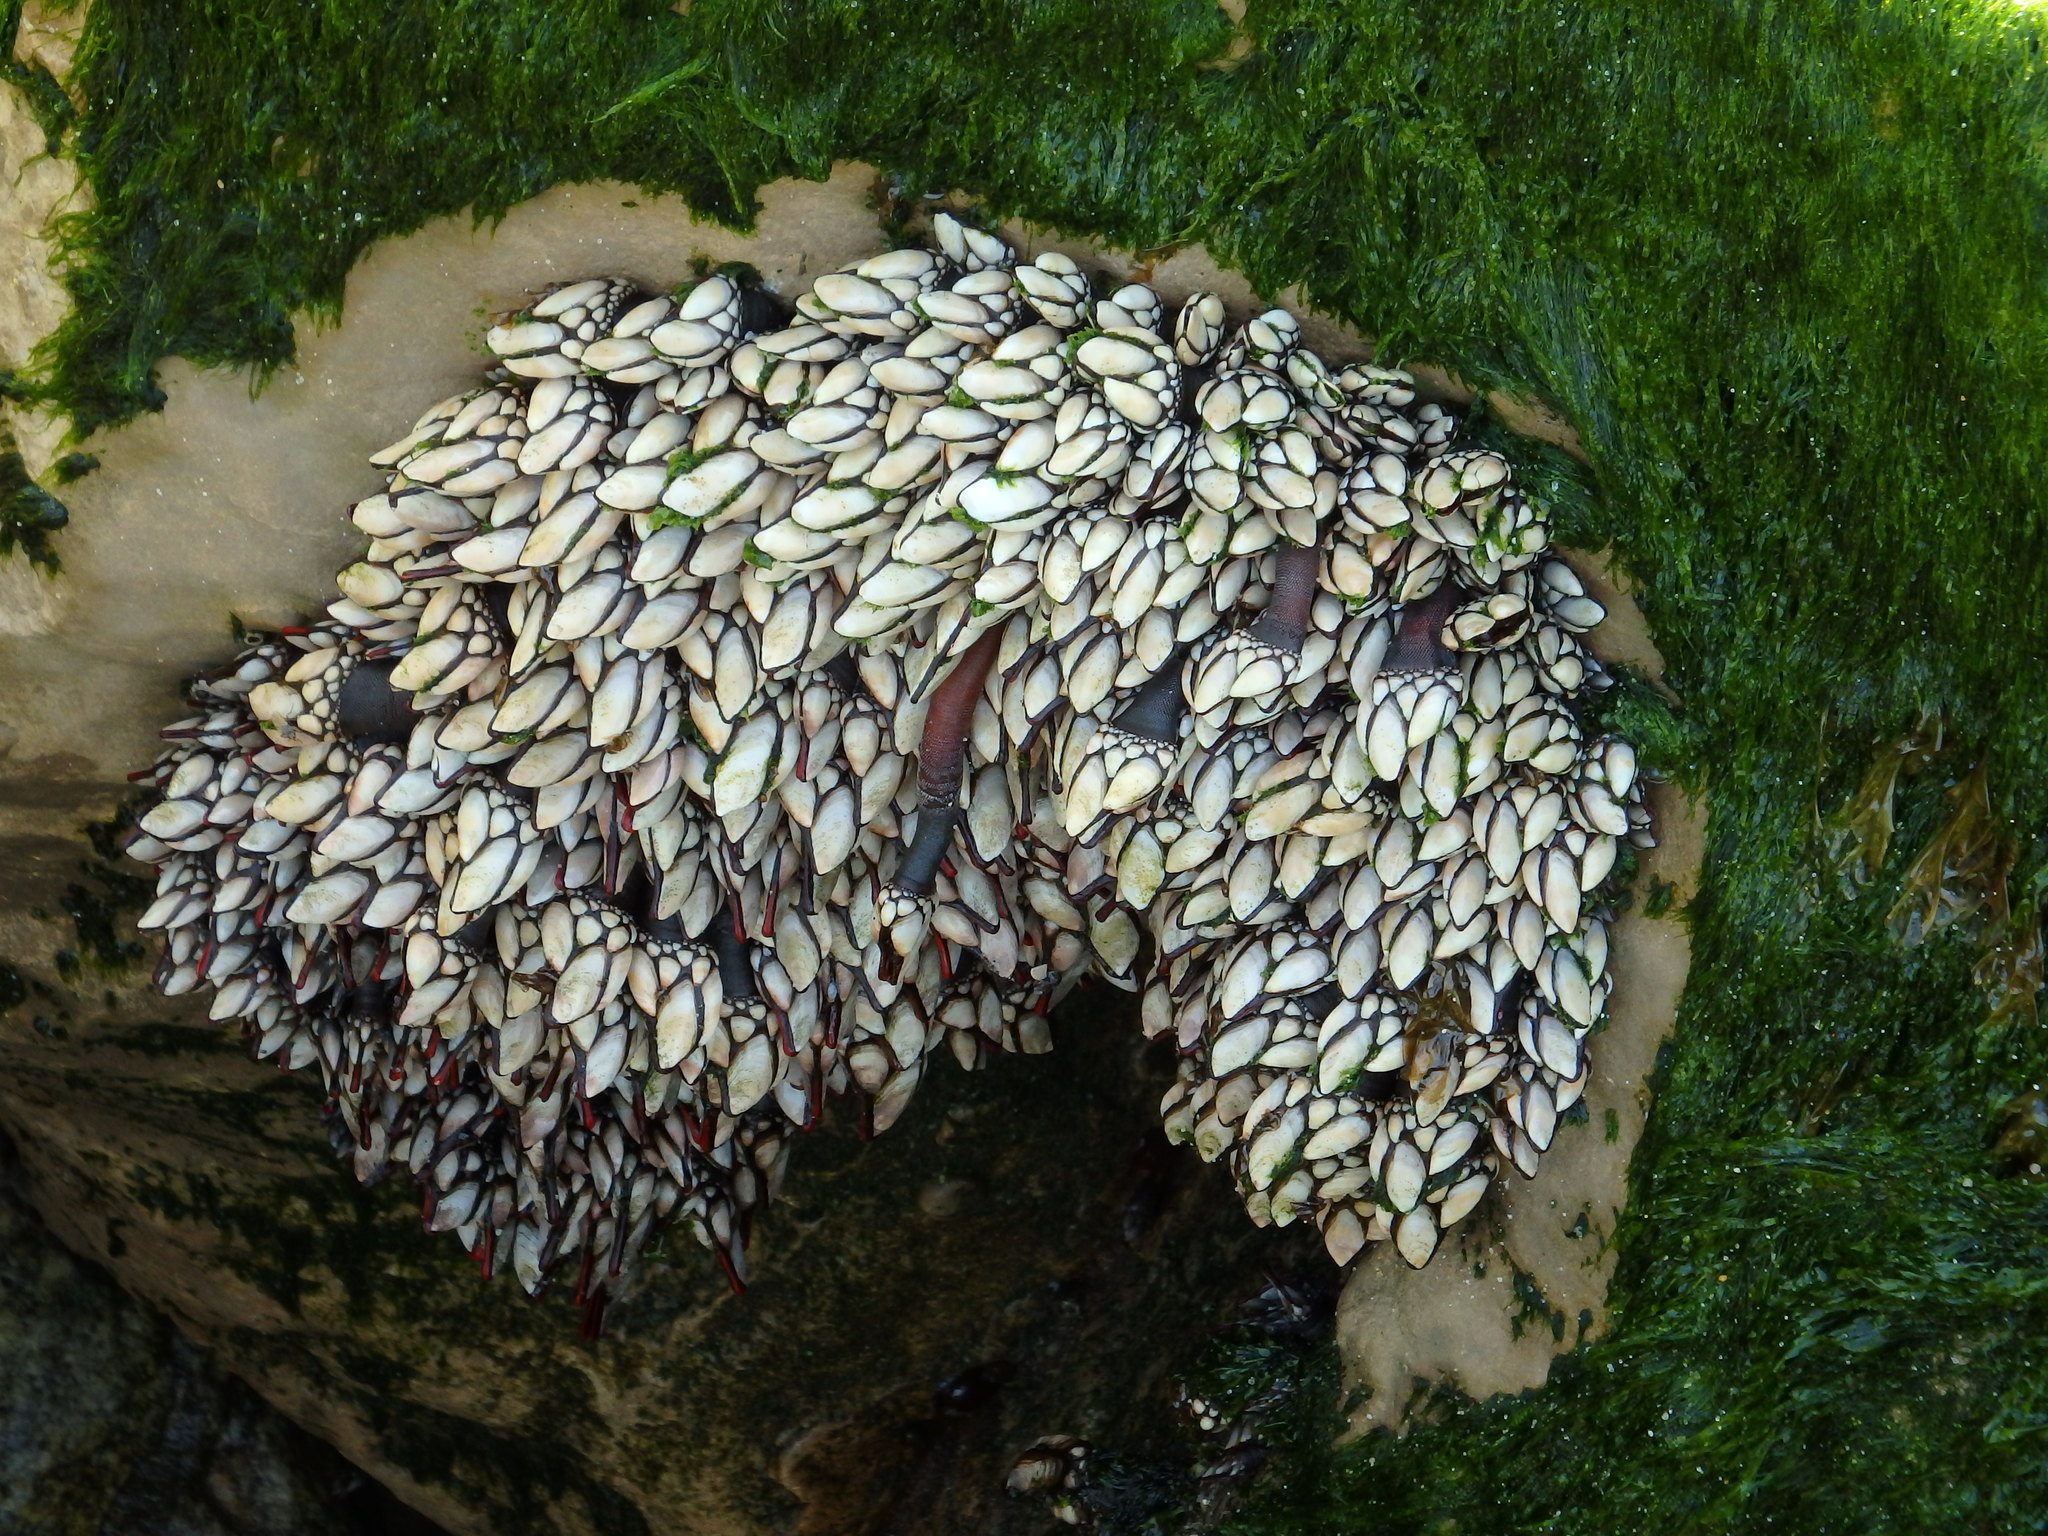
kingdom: Animalia
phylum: Arthropoda
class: Maxillopoda
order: Pedunculata
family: Pollicipedidae
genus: Pollicipes
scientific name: Pollicipes pollicipes
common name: Gooseneck barnacle
